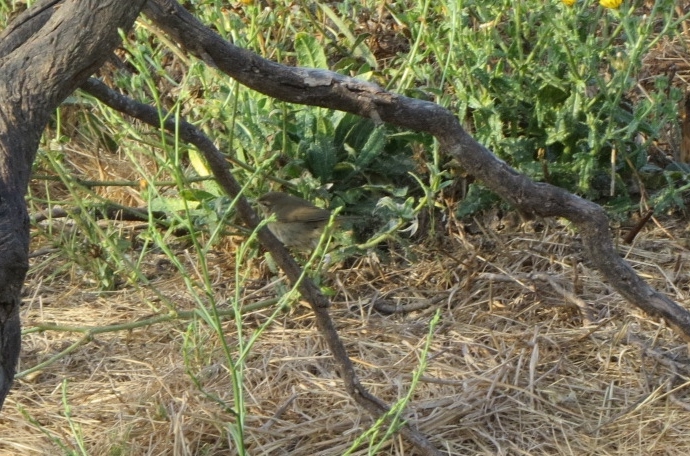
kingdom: Animalia
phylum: Chordata
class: Aves
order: Passeriformes
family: Phylloscopidae
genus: Phylloscopus
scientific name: Phylloscopus fuscatus
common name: Dusky warbler
